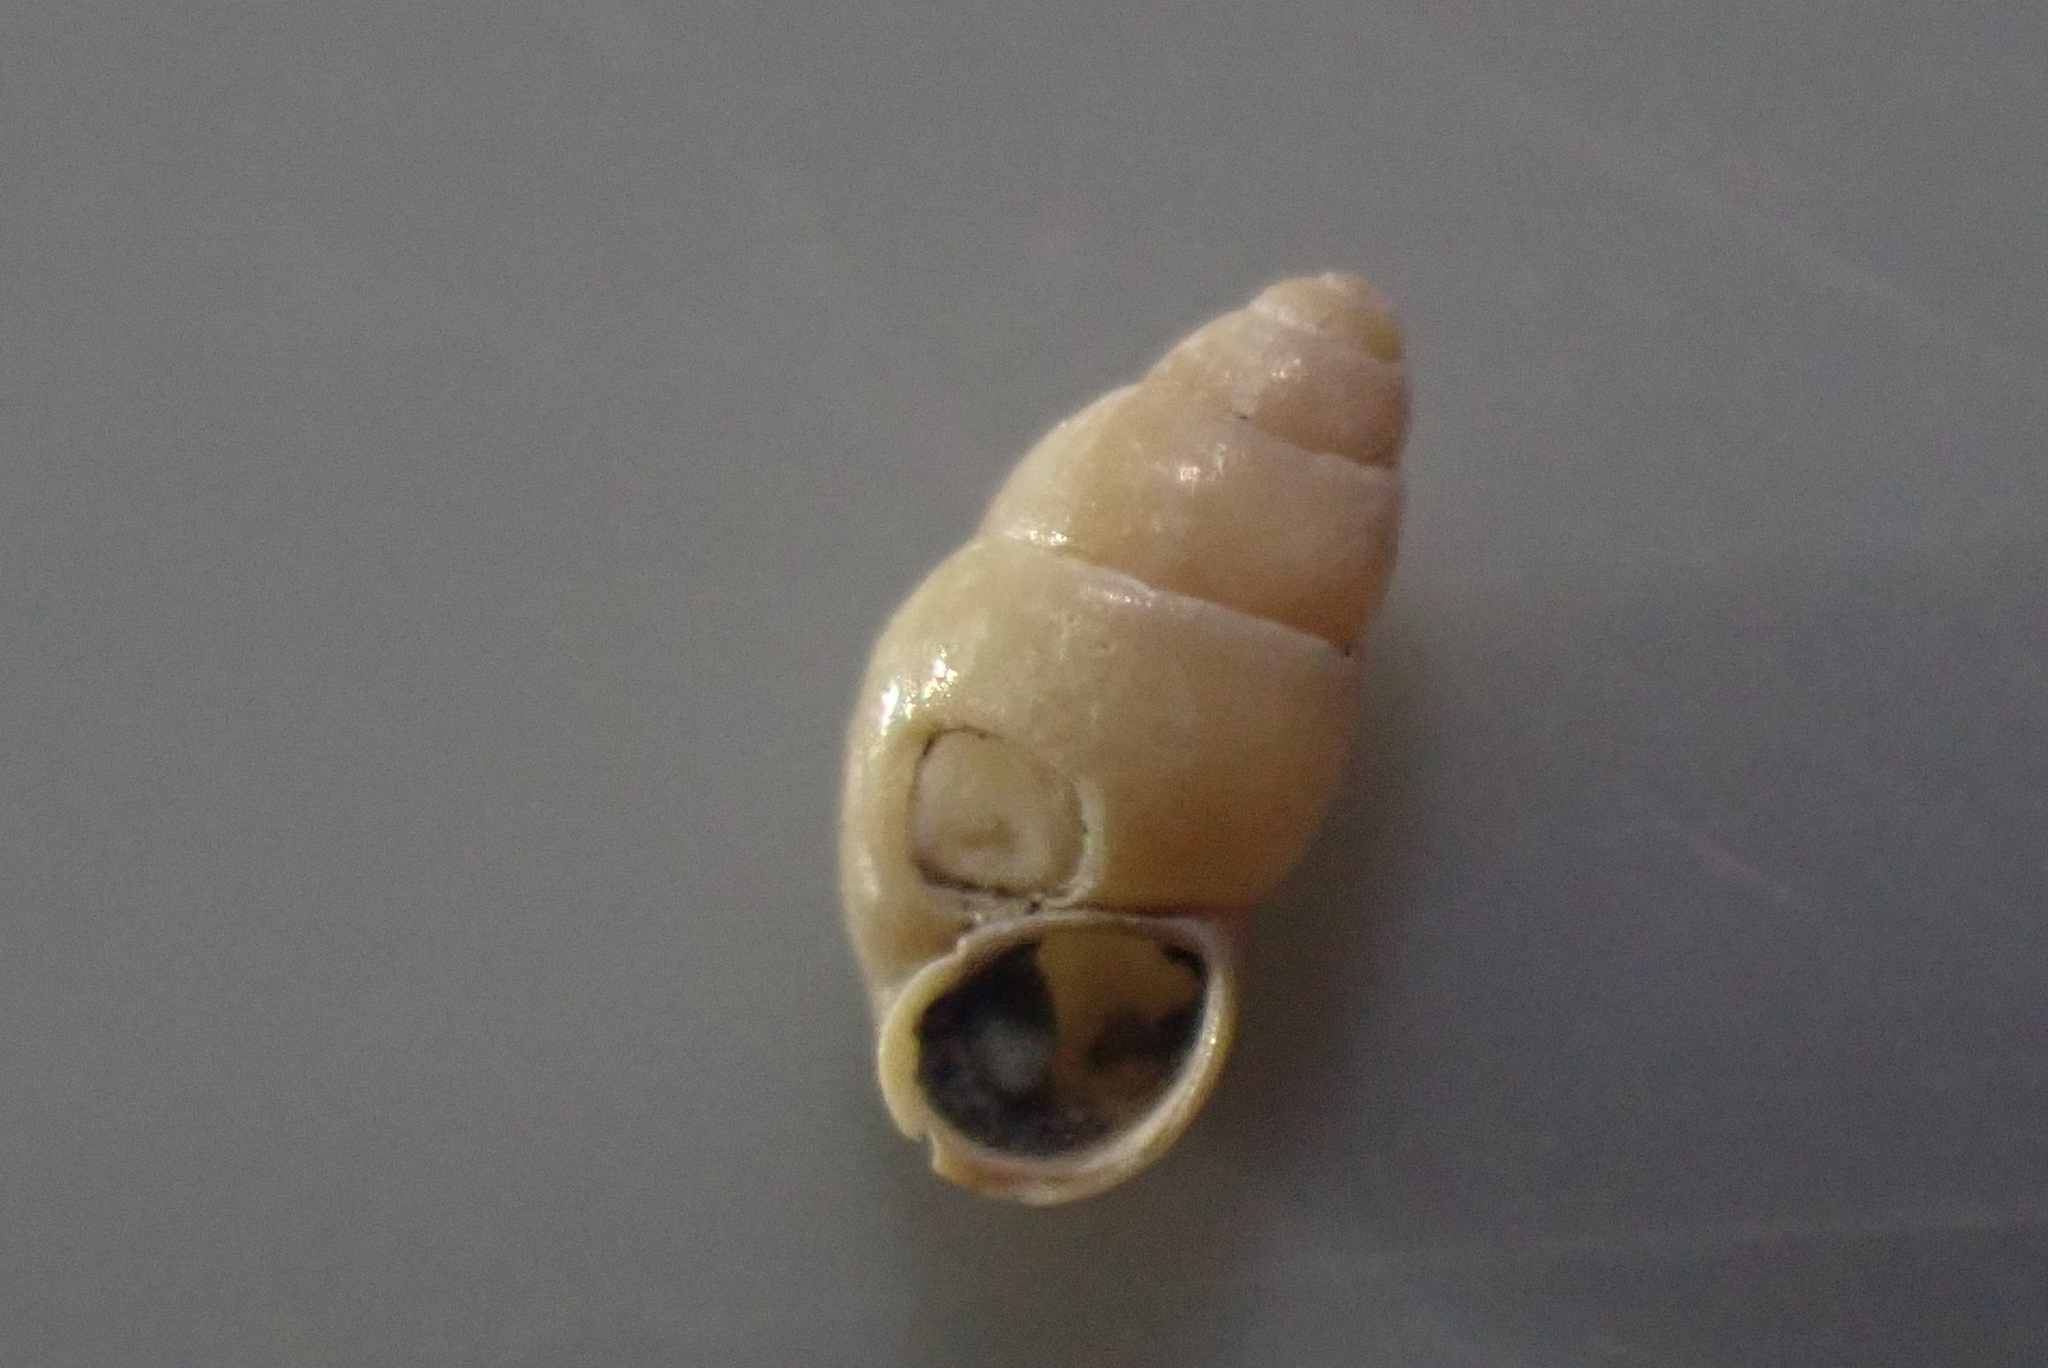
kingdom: Animalia
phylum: Mollusca
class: Gastropoda
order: Littorinimorpha
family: Tateidae
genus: Halopyrgus
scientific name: Halopyrgus pupoides
